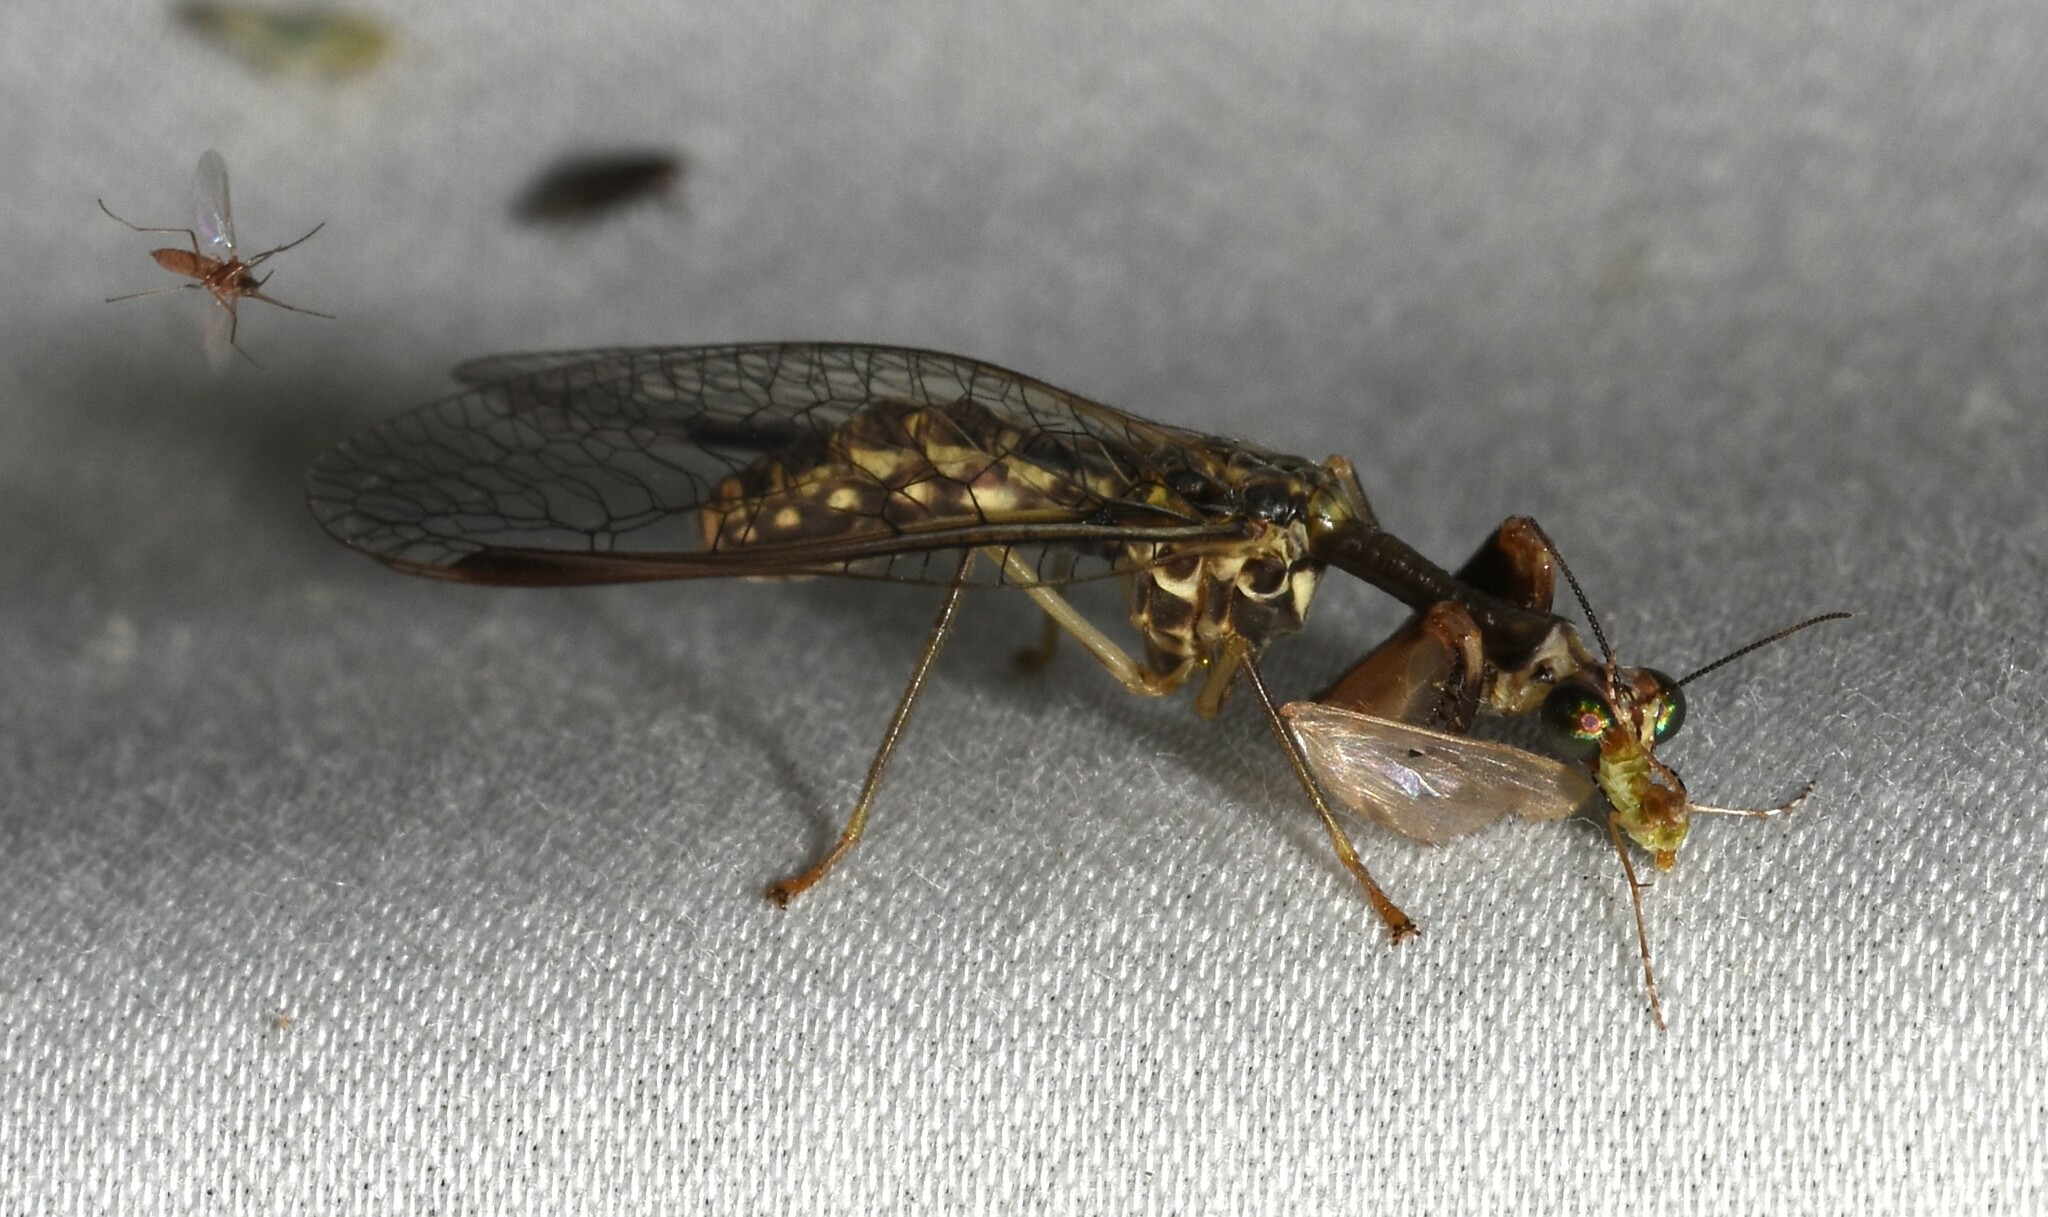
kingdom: Animalia
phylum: Arthropoda
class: Insecta
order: Neuroptera
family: Mantispidae
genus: Dicromantispa
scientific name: Dicromantispa sayi
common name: Say's mantidfly
